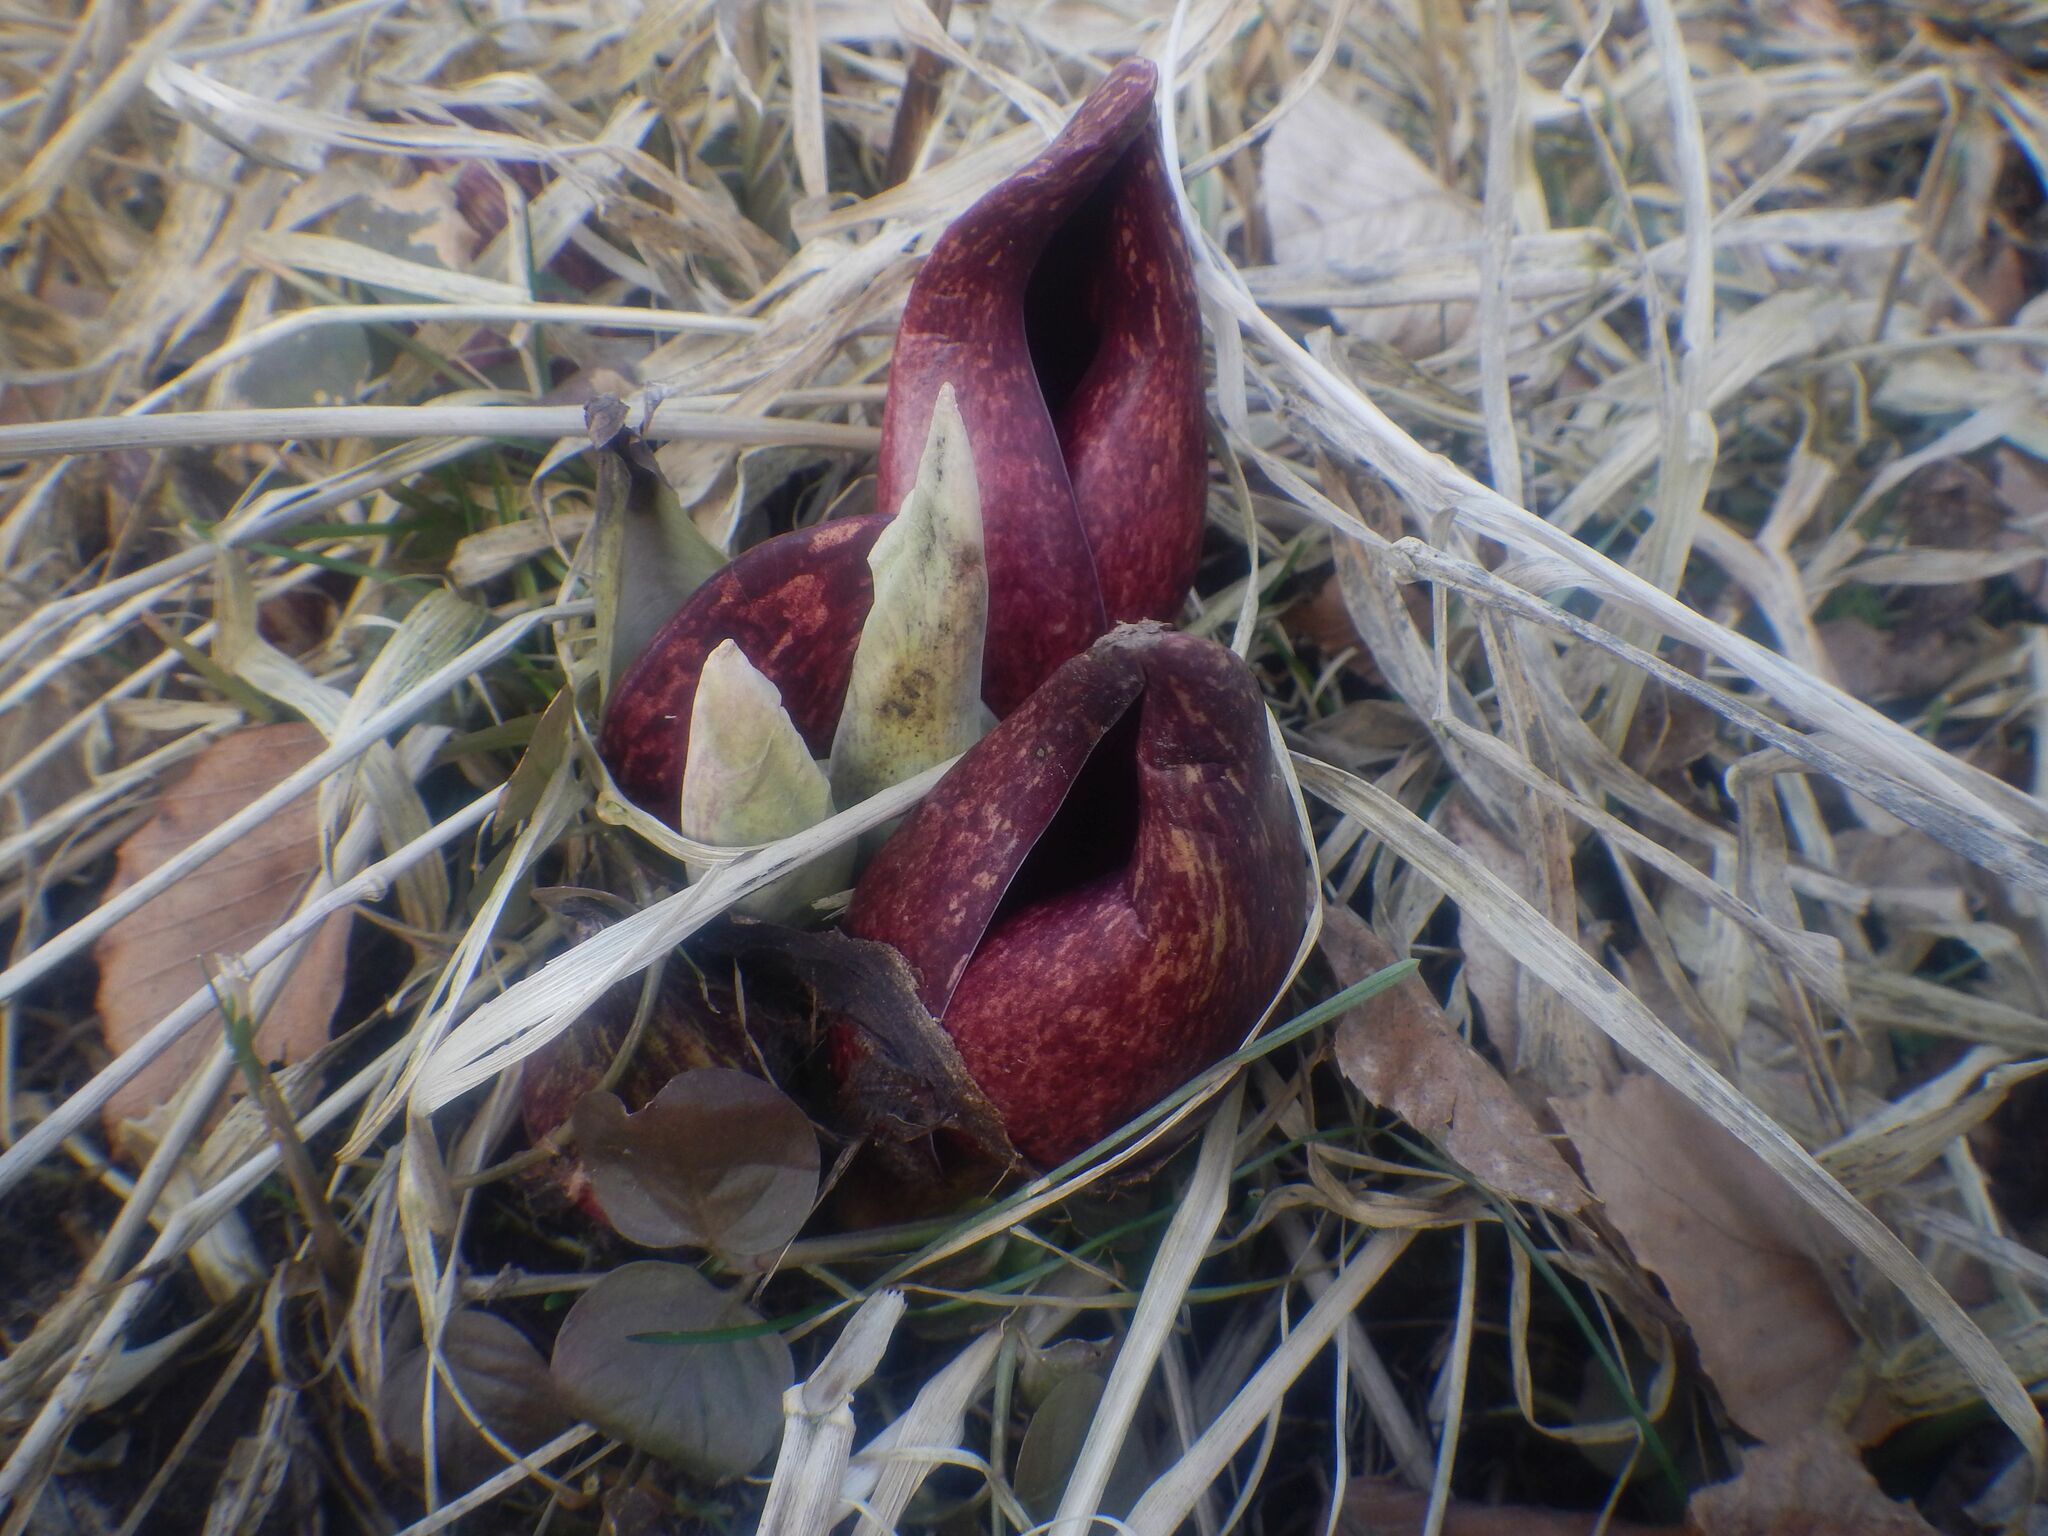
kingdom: Plantae
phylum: Tracheophyta
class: Liliopsida
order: Alismatales
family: Araceae
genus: Symplocarpus
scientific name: Symplocarpus foetidus
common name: Eastern skunk cabbage
